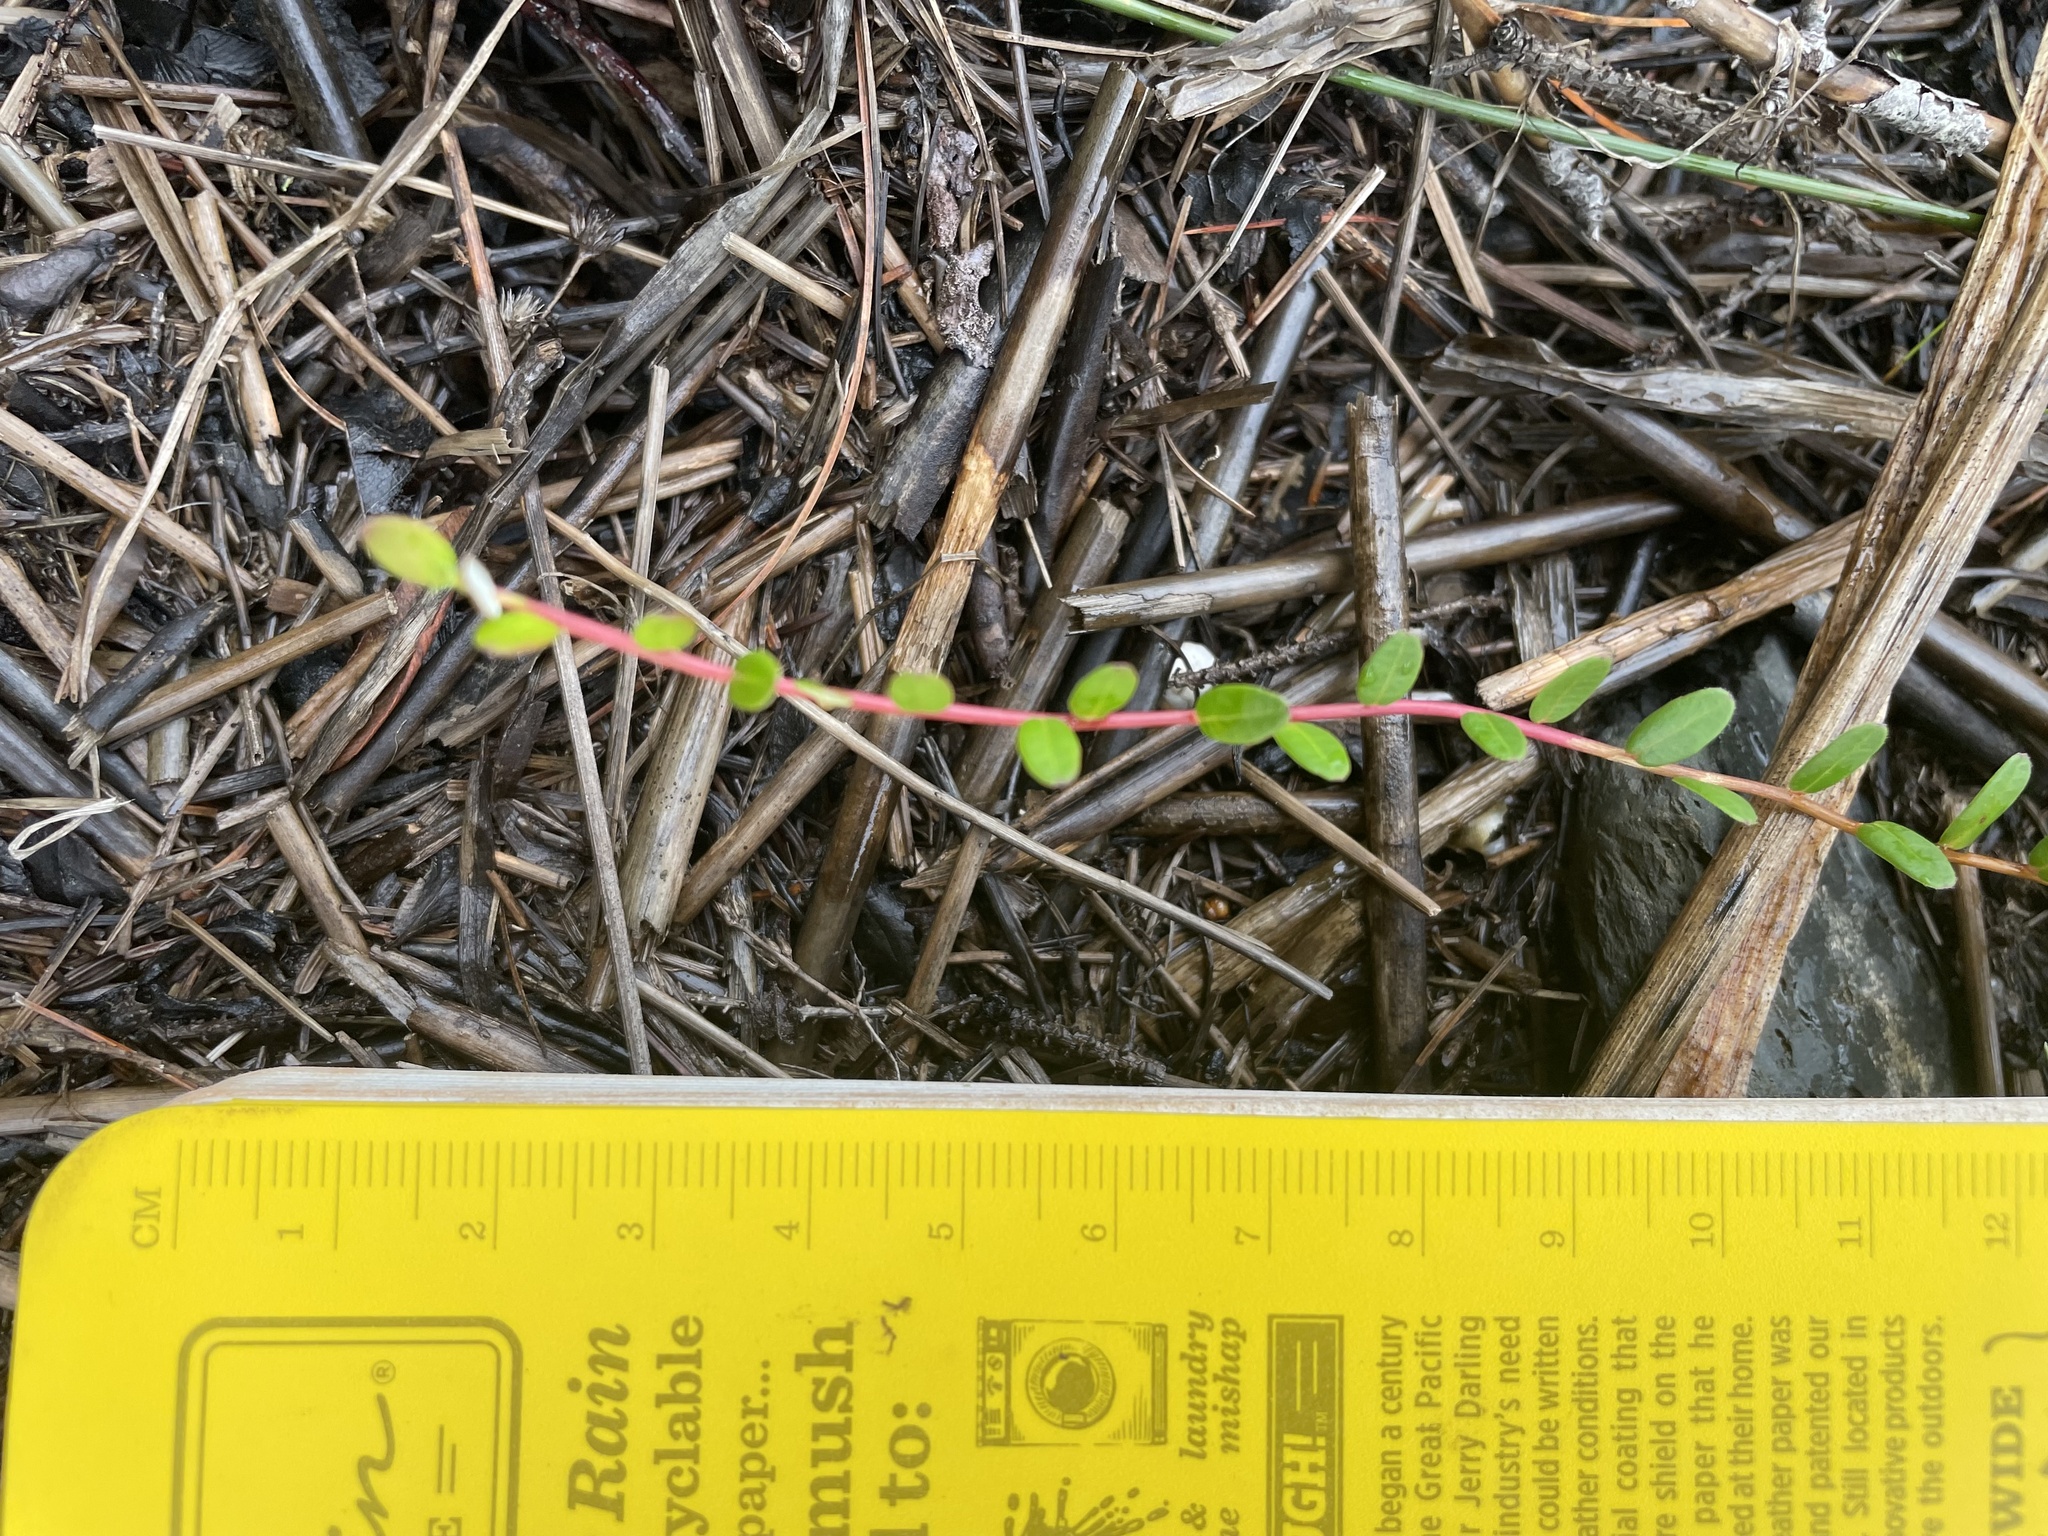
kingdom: Plantae
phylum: Tracheophyta
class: Magnoliopsida
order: Ericales
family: Ericaceae
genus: Vaccinium
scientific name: Vaccinium macrocarpon
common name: American cranberry
